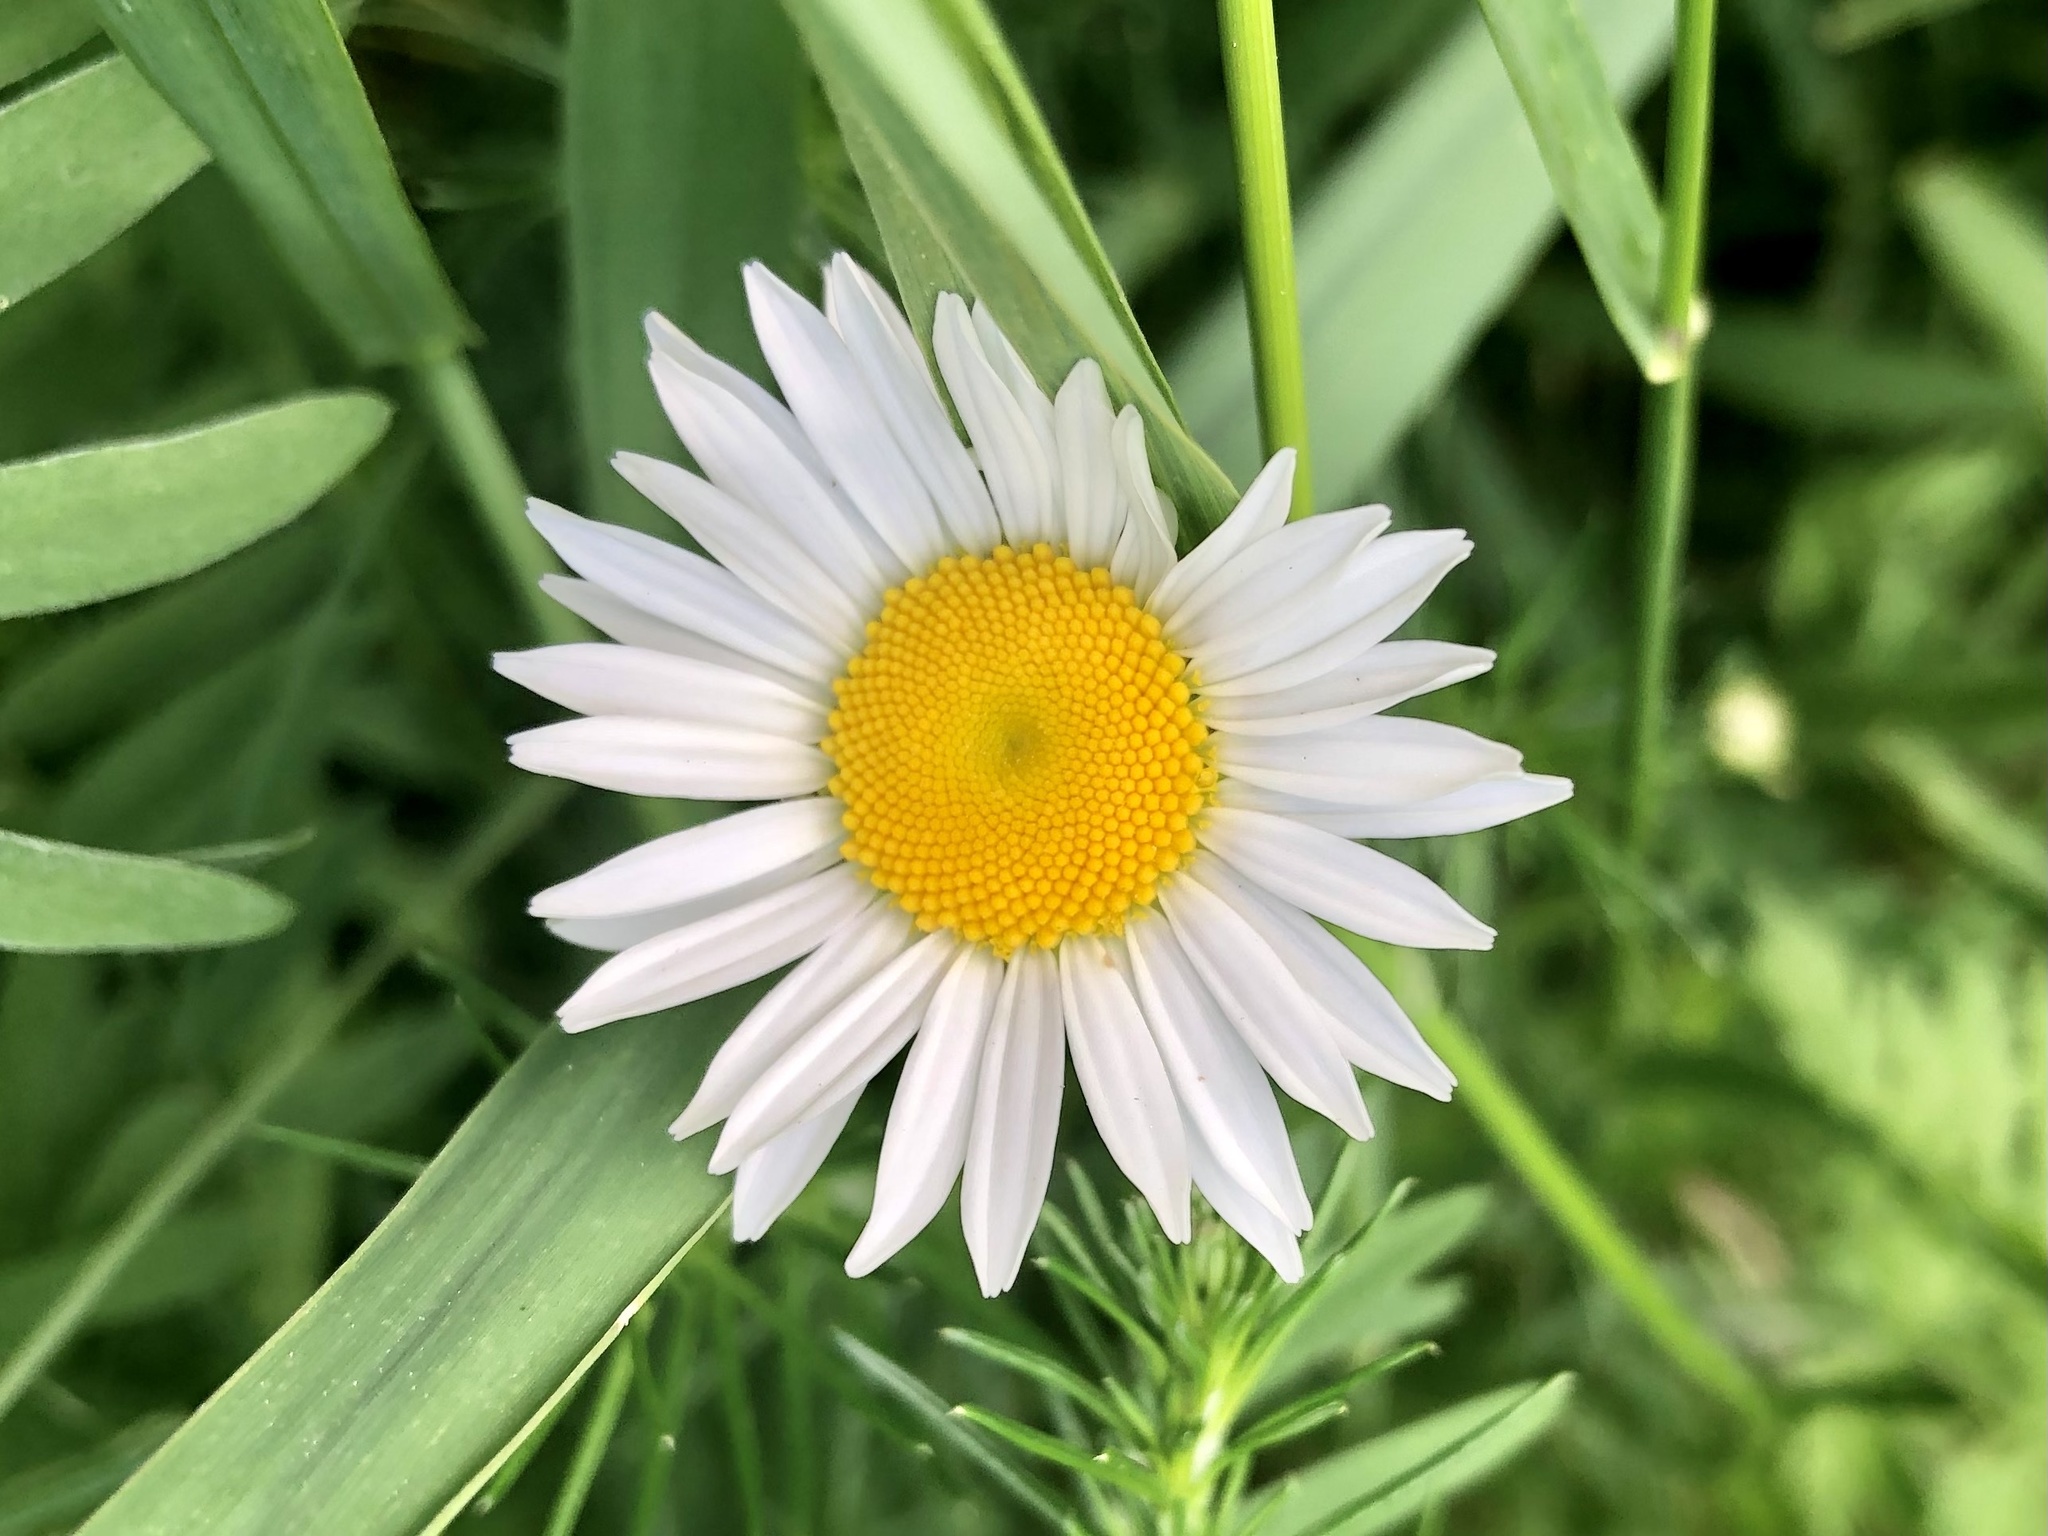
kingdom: Plantae
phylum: Tracheophyta
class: Magnoliopsida
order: Asterales
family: Asteraceae
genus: Leucanthemum
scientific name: Leucanthemum vulgare
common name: Oxeye daisy
